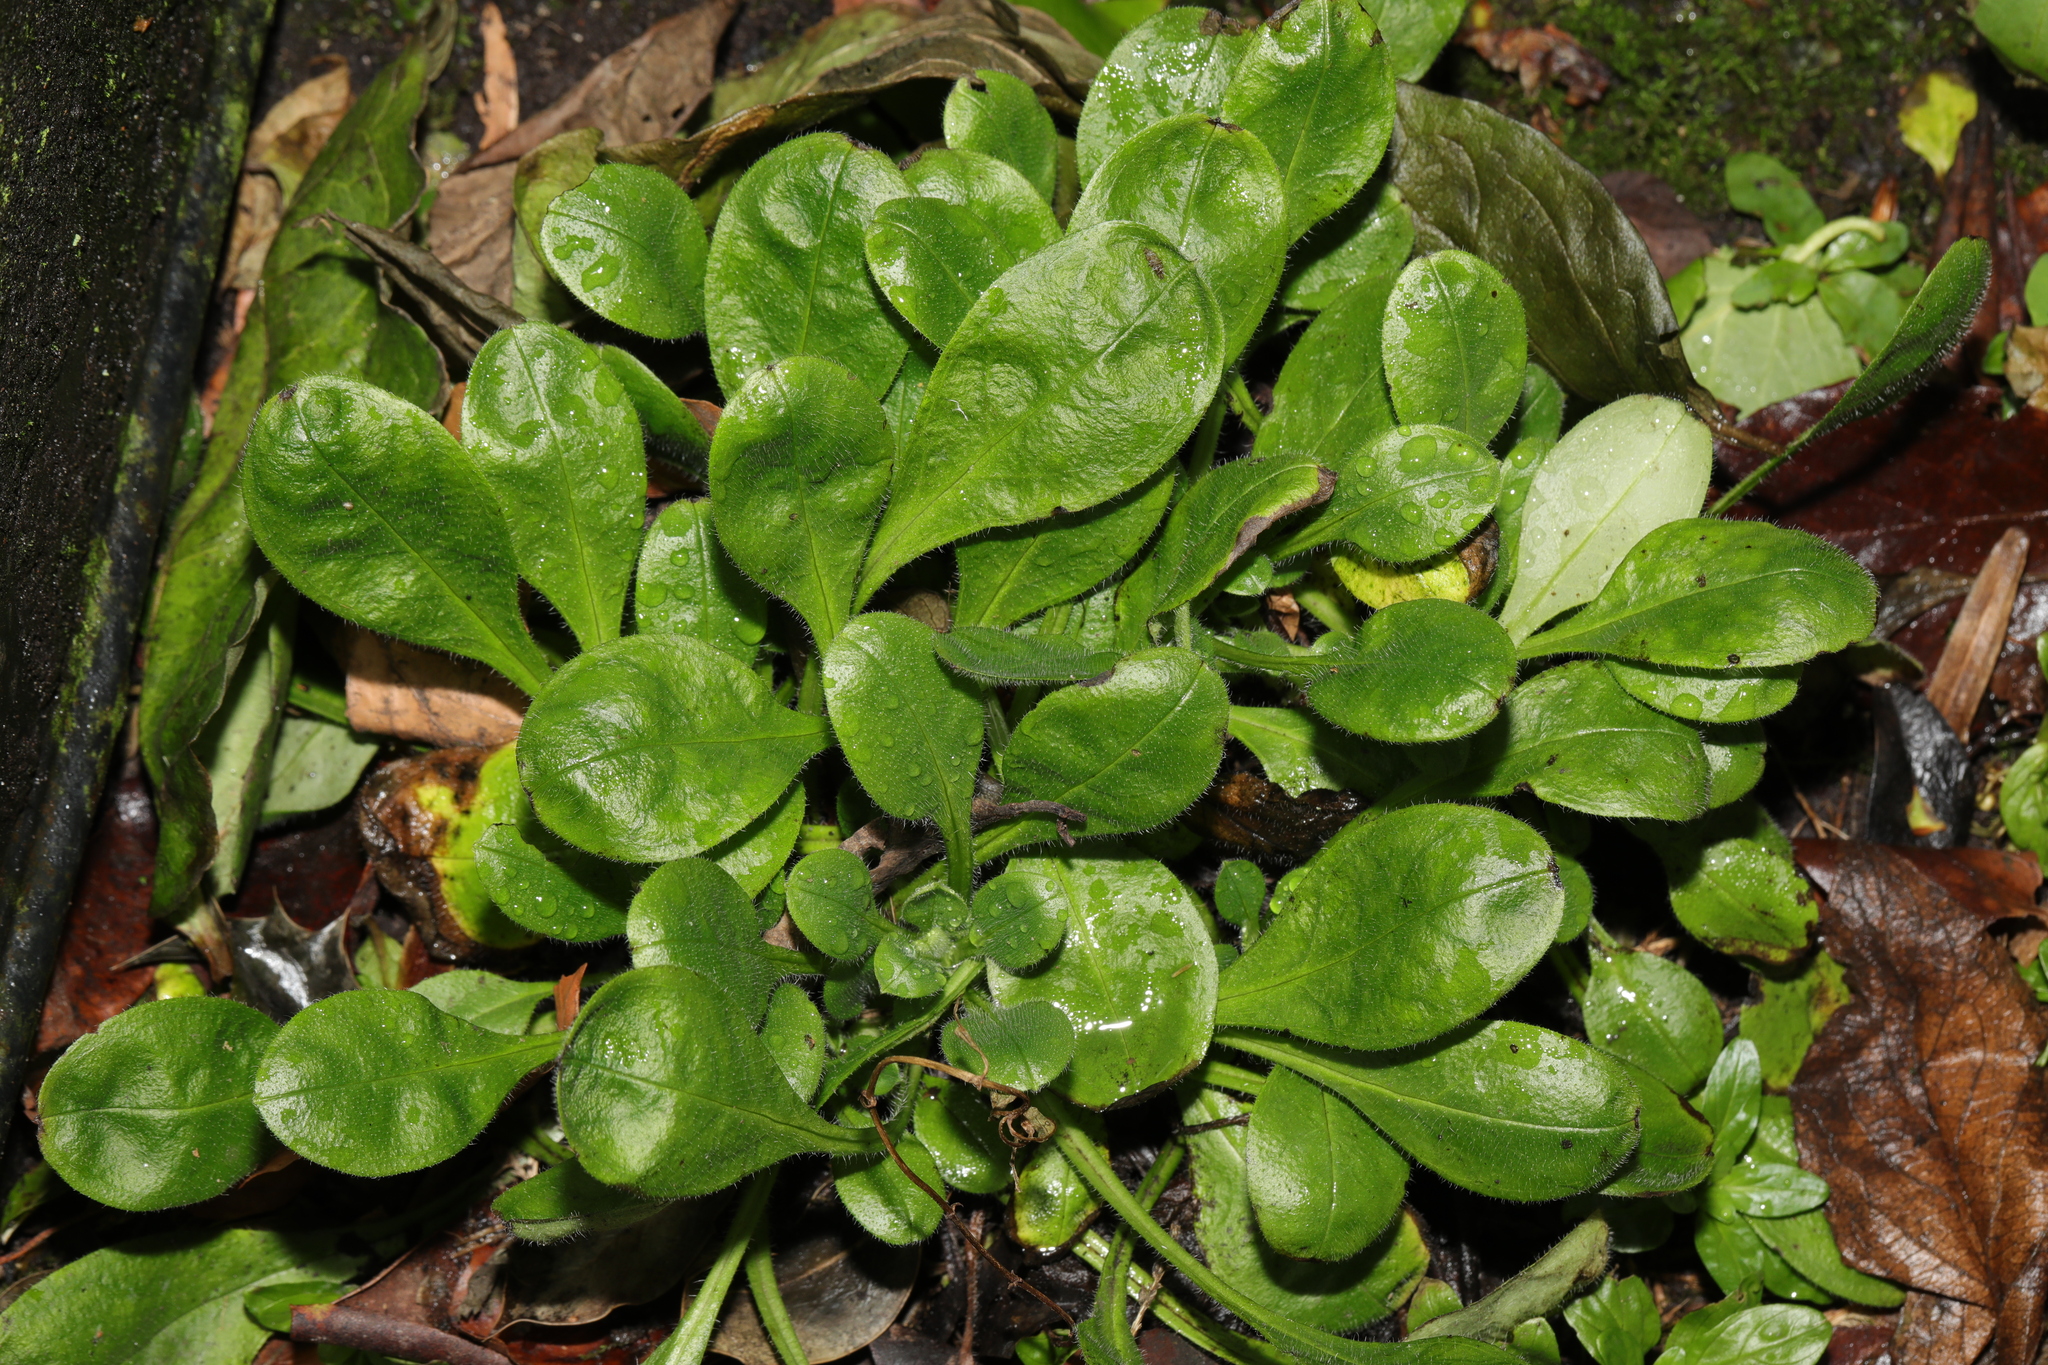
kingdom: Plantae
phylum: Tracheophyta
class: Magnoliopsida
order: Asterales
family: Asteraceae
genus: Bellis
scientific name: Bellis perennis
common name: Lawndaisy
